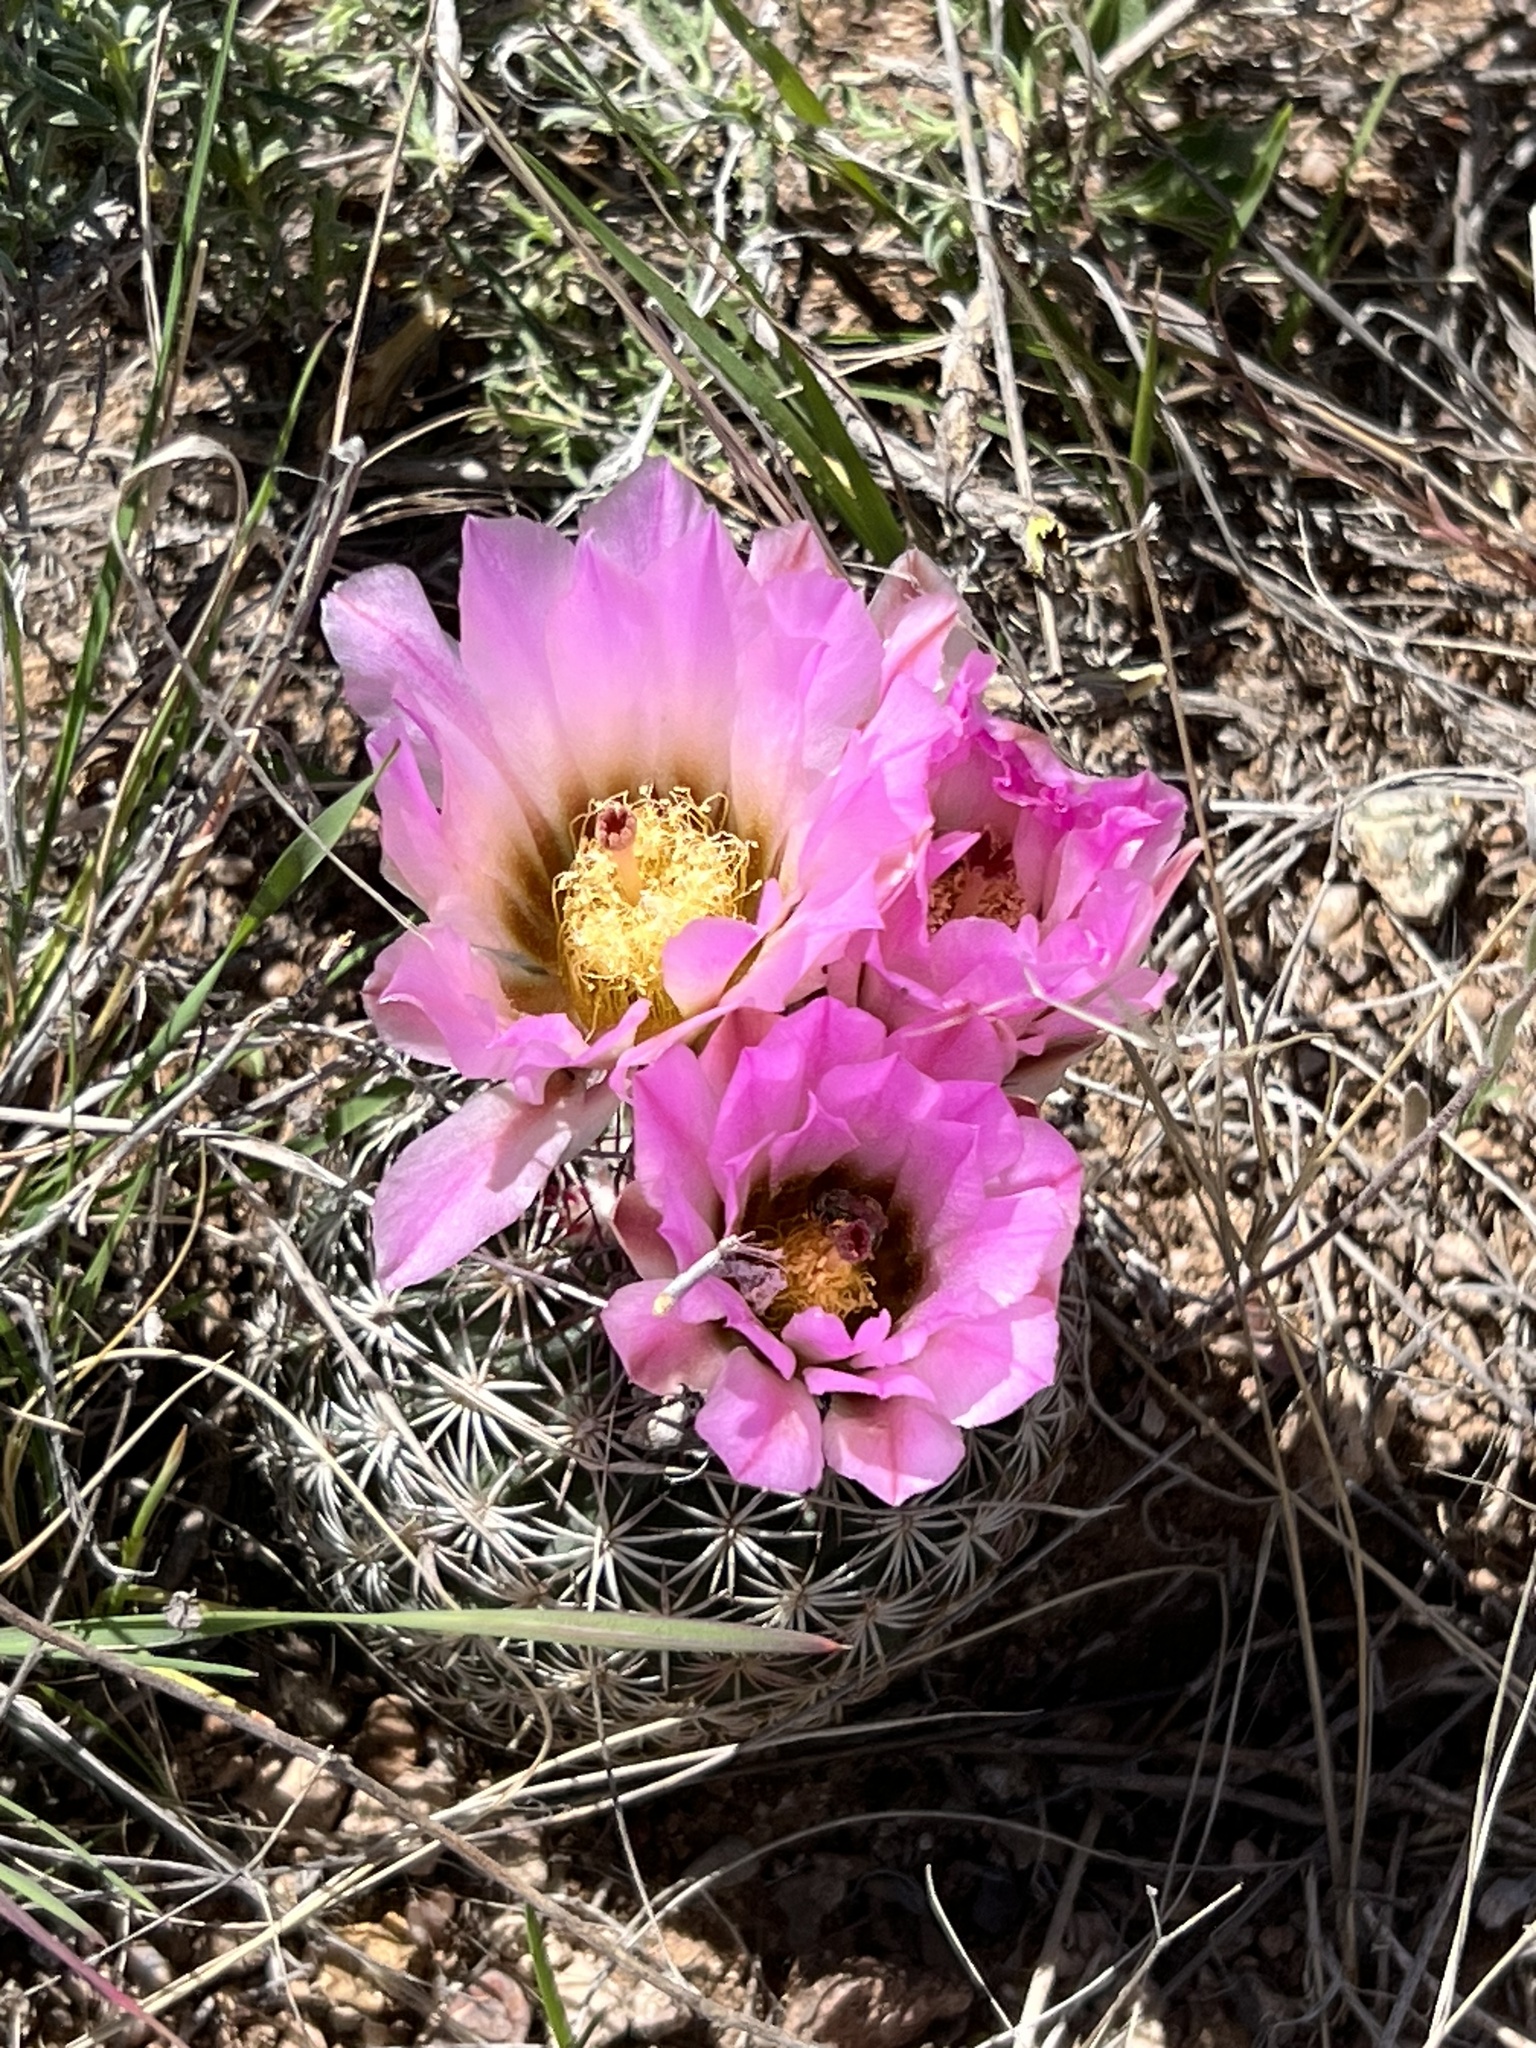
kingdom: Plantae
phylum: Tracheophyta
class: Magnoliopsida
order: Caryophyllales
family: Cactaceae
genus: Sclerocactus
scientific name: Sclerocactus johnsonii
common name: Eight-spine fishhook cactus
